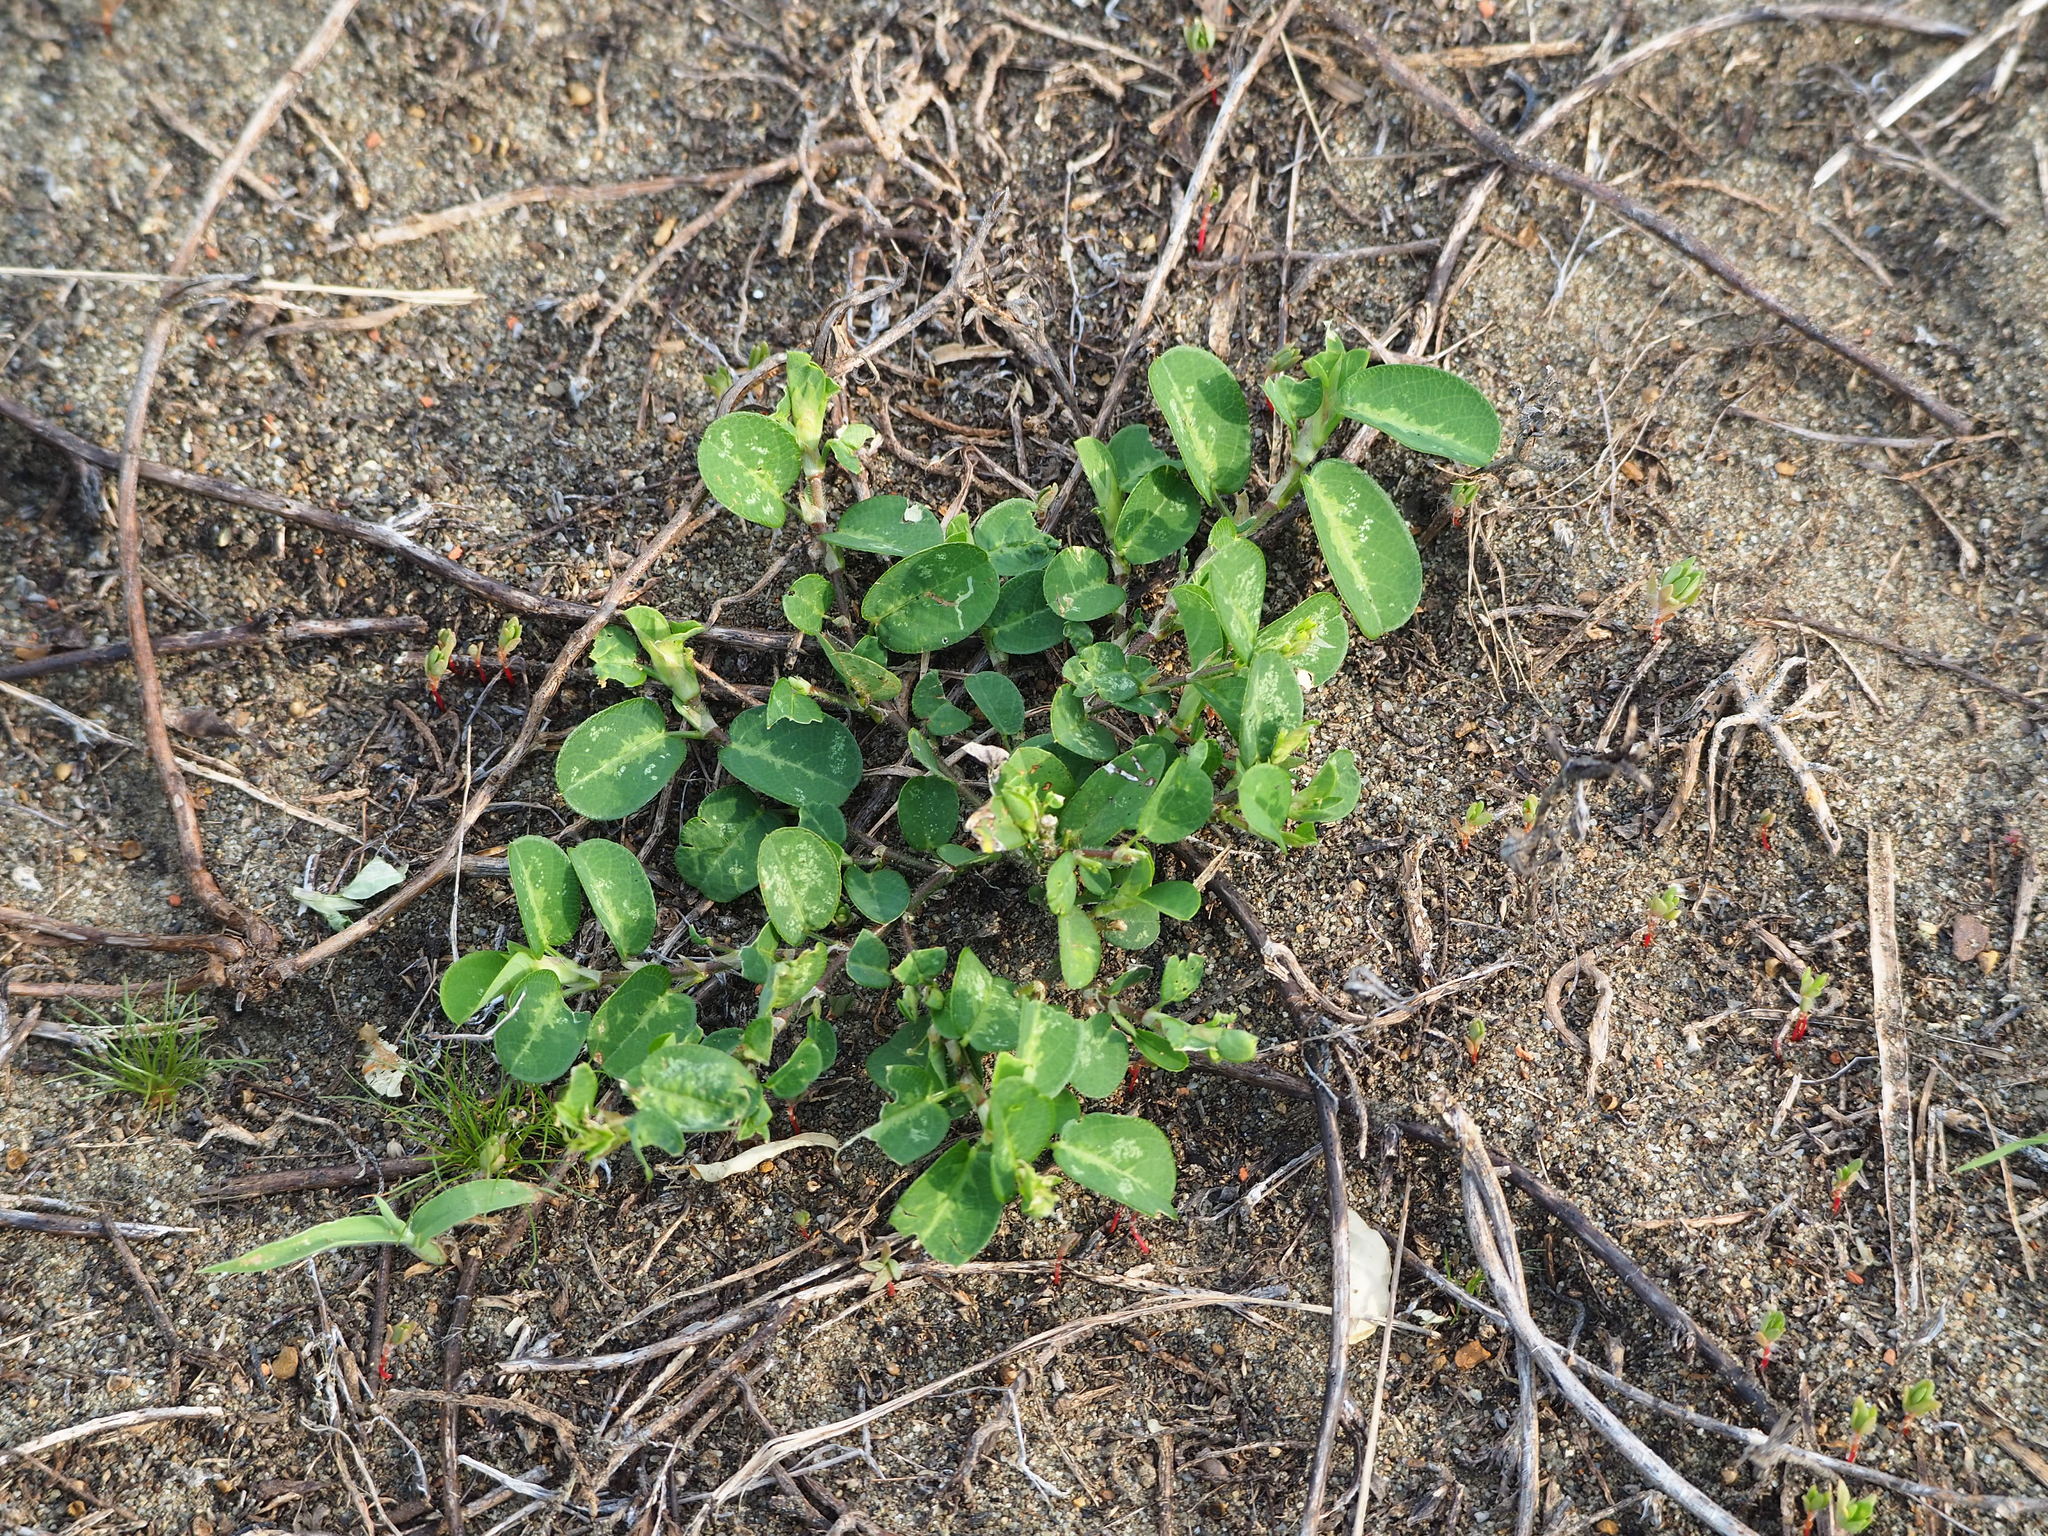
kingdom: Plantae
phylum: Tracheophyta
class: Magnoliopsida
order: Fabales
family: Fabaceae
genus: Alysicarpus
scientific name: Alysicarpus ovalifolius
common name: Alyce clover
